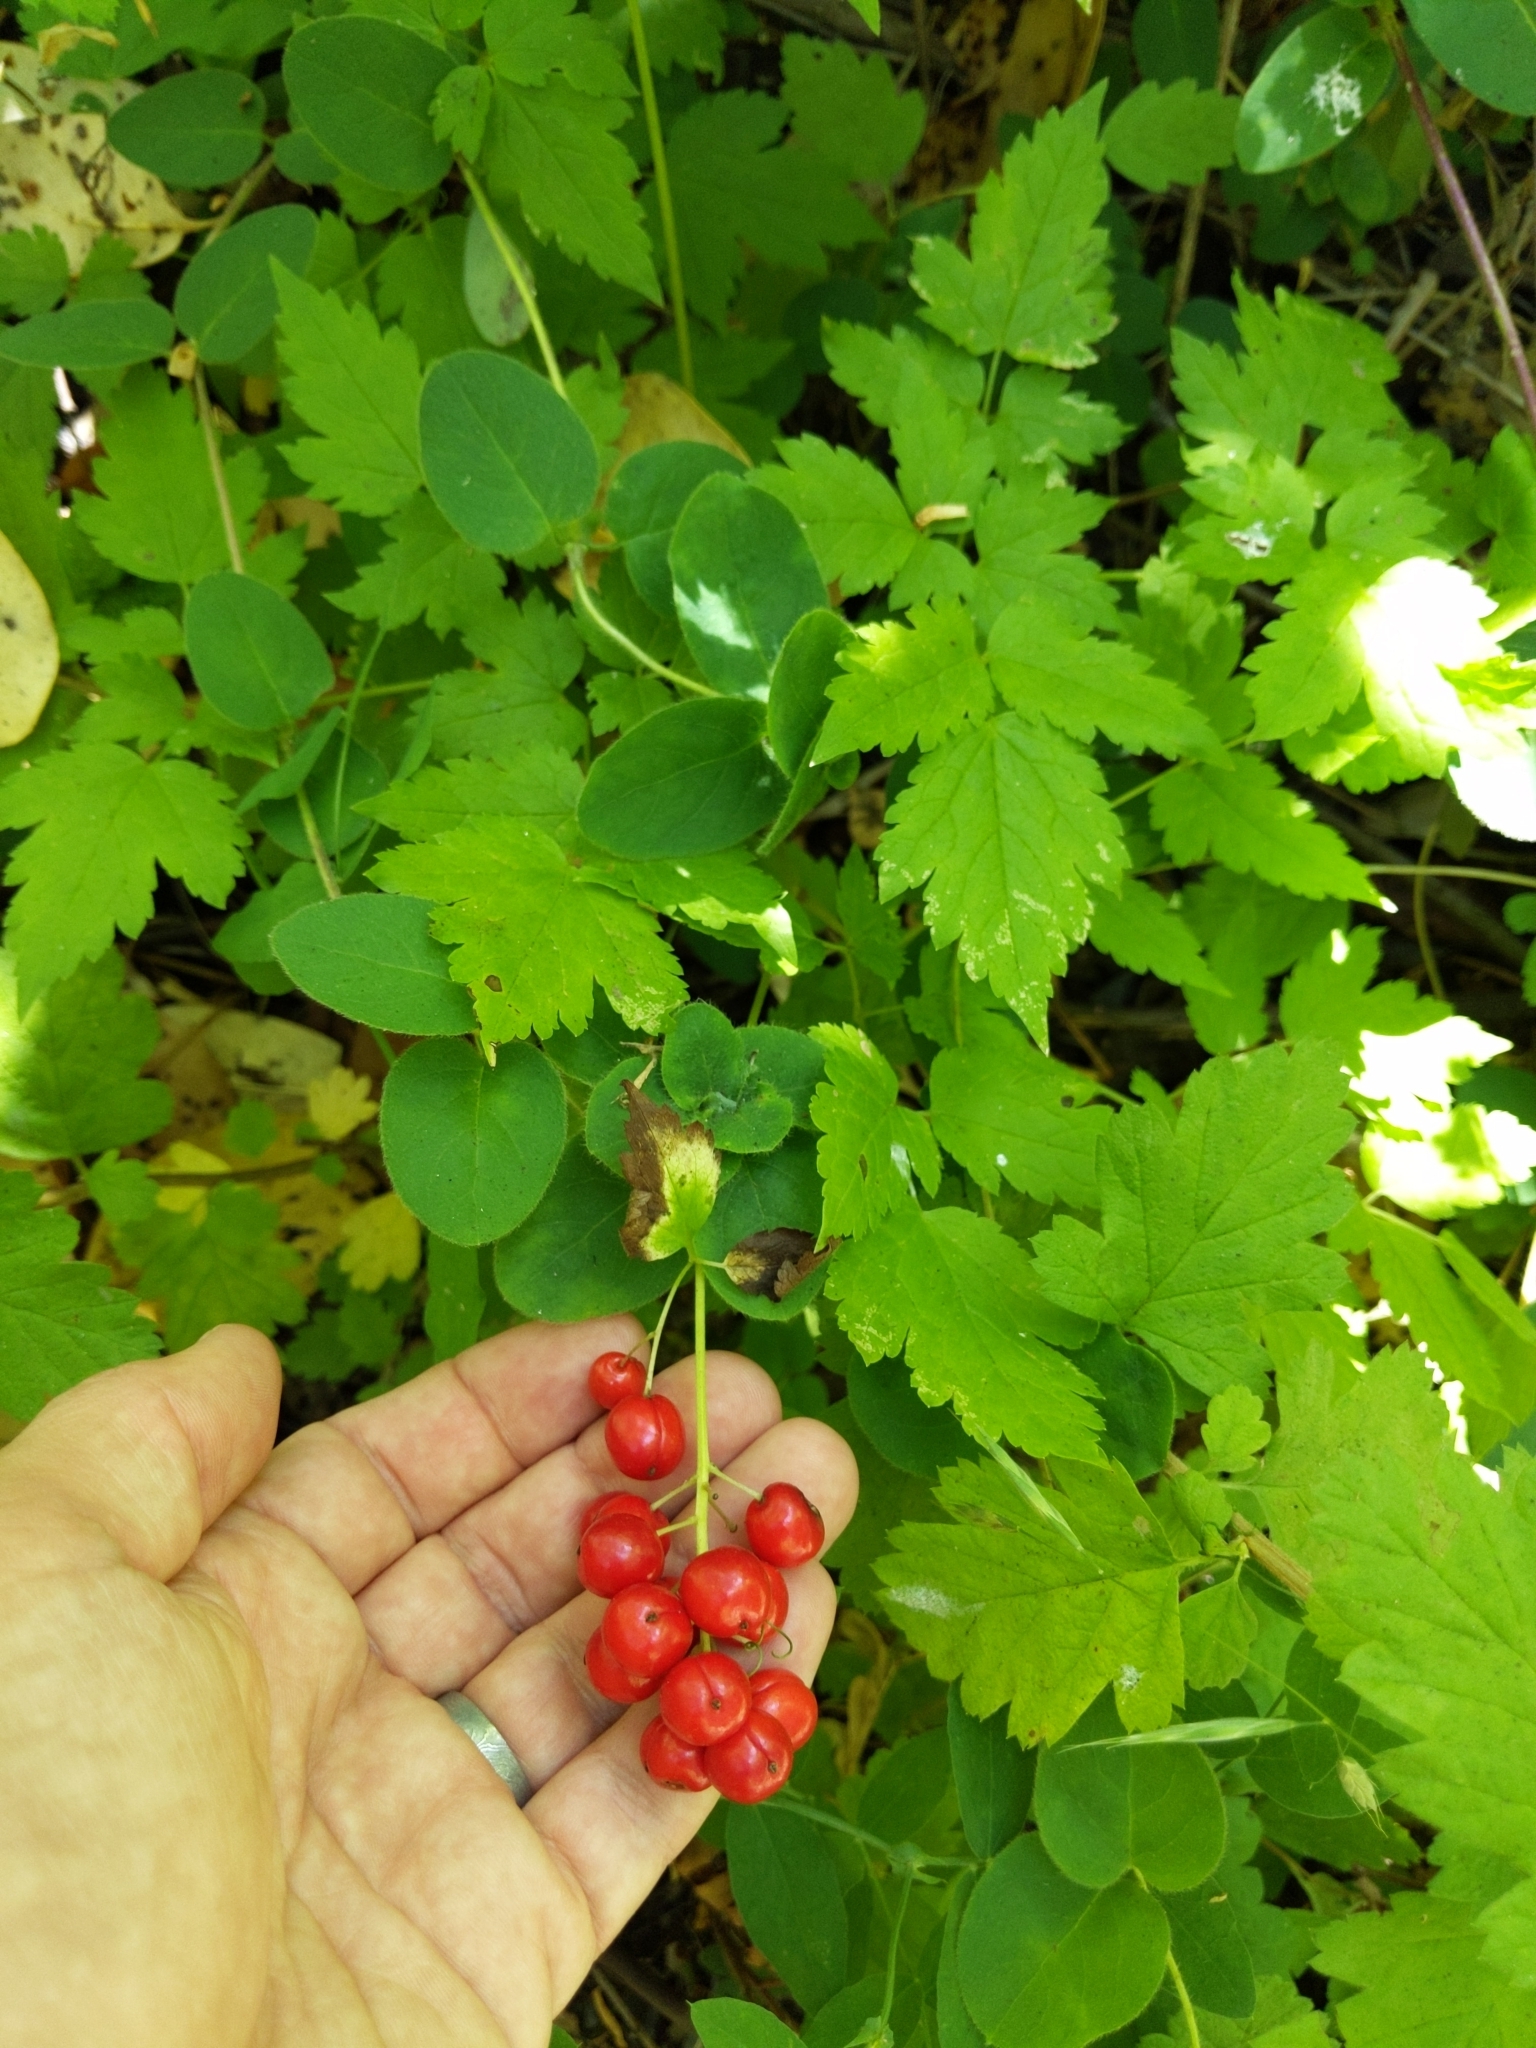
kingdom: Plantae
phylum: Tracheophyta
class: Magnoliopsida
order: Ranunculales
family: Ranunculaceae
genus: Actaea
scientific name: Actaea rubra
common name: Red baneberry
